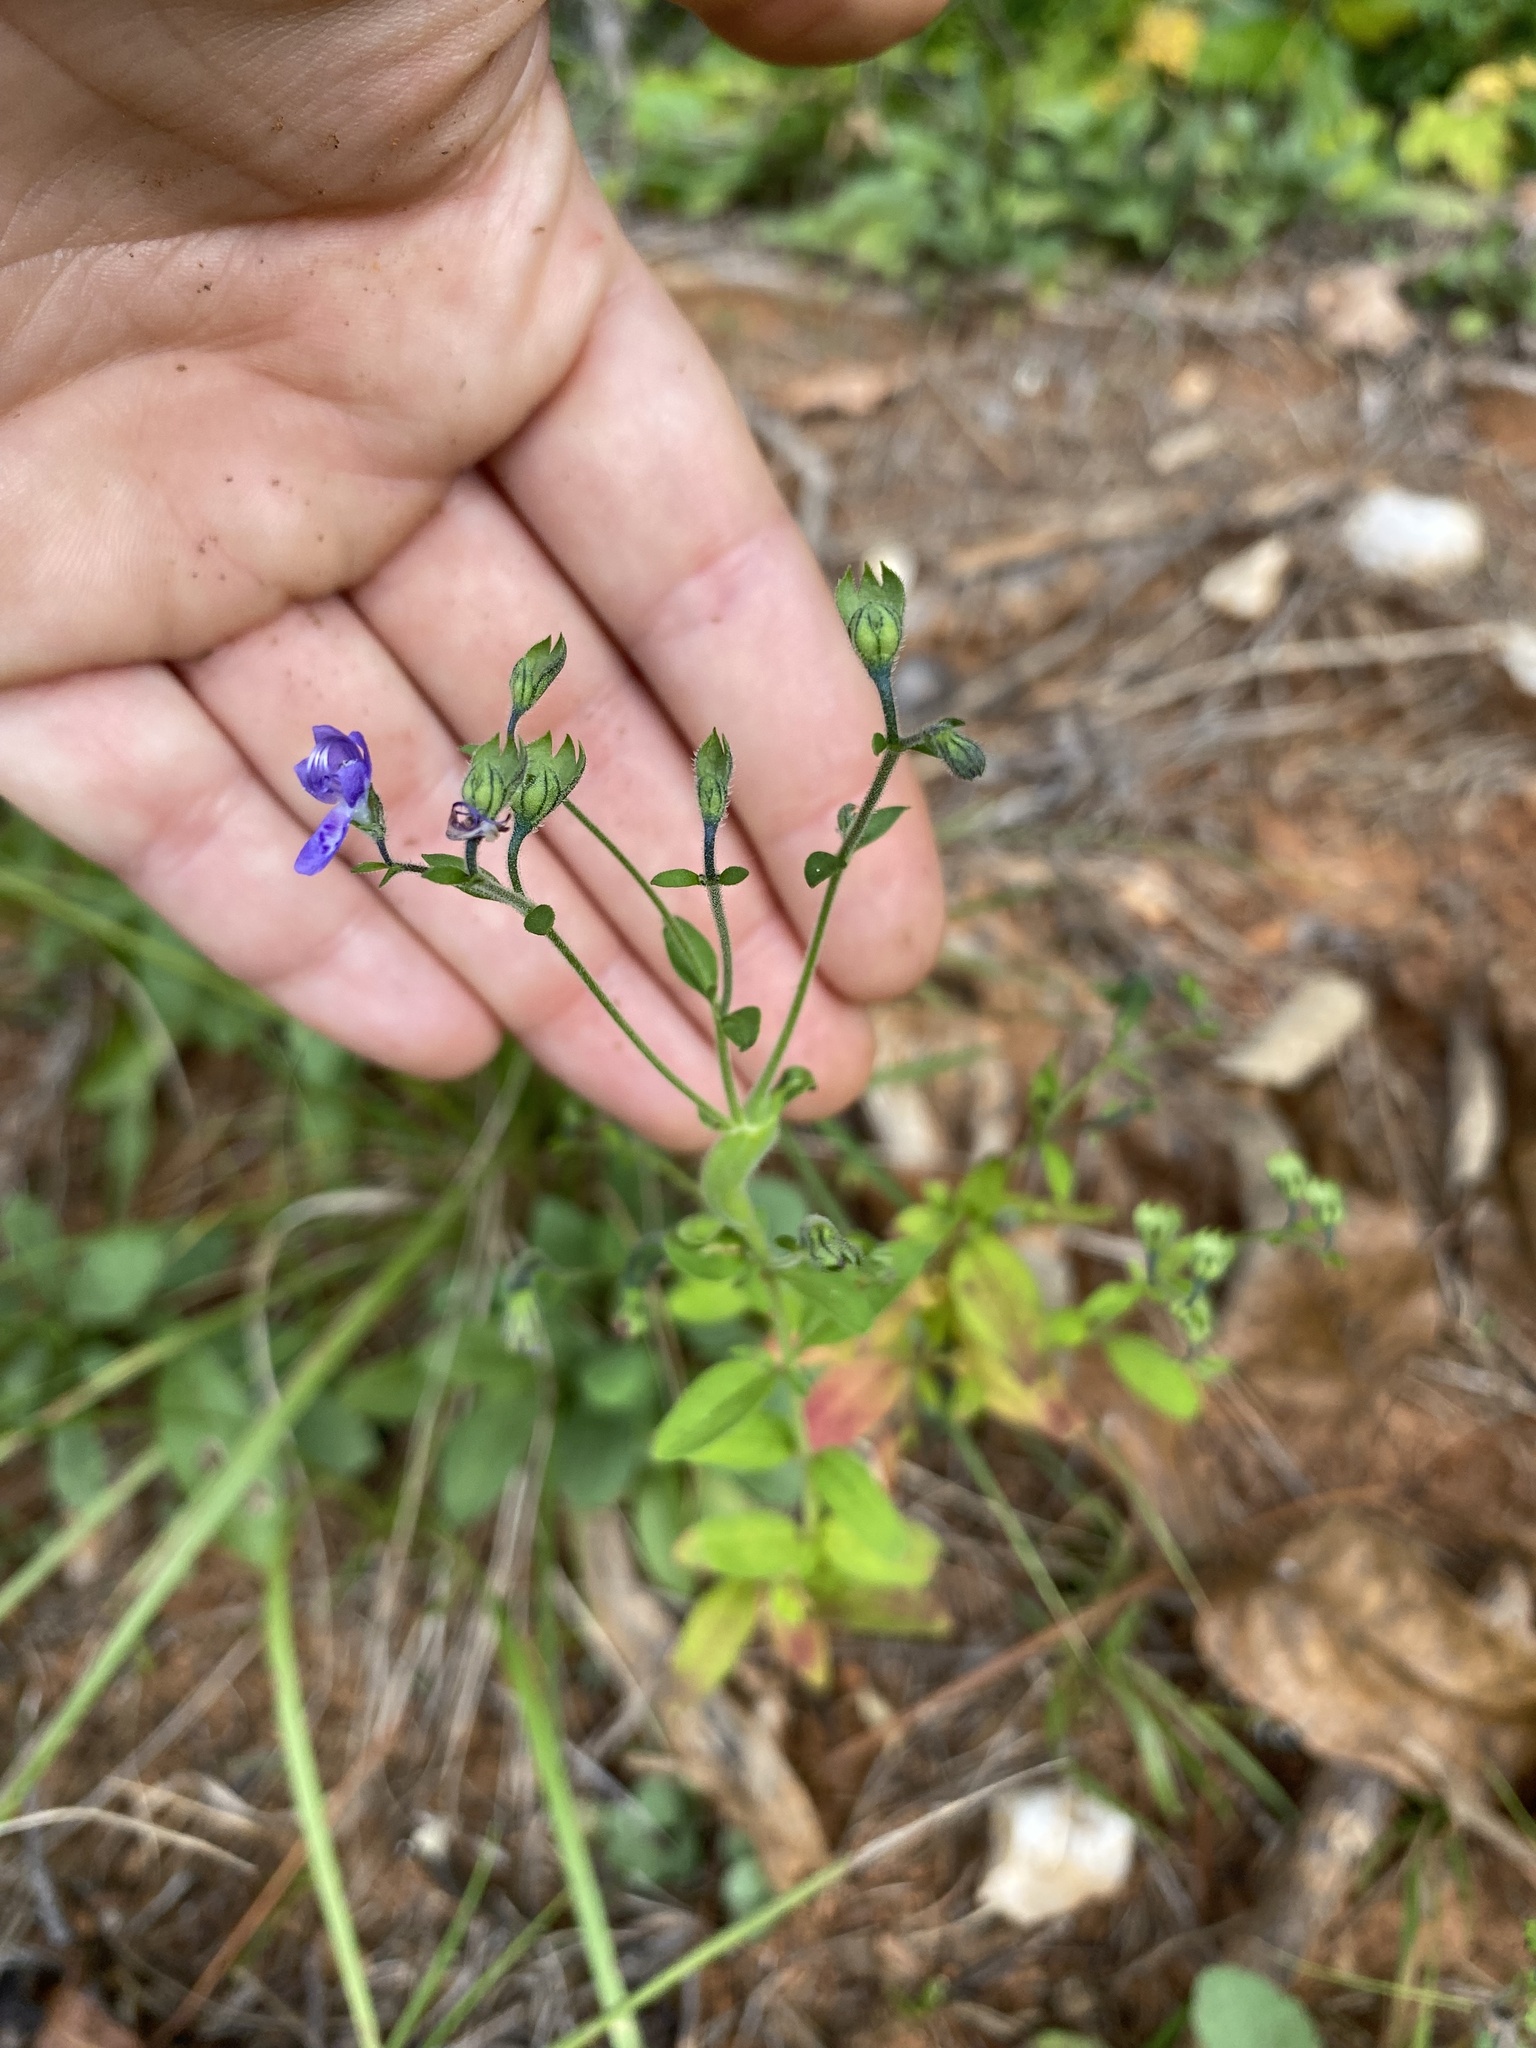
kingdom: Plantae
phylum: Tracheophyta
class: Magnoliopsida
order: Lamiales
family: Lamiaceae
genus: Trichostema
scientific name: Trichostema dichotomum
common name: Bastard pennyroyal
